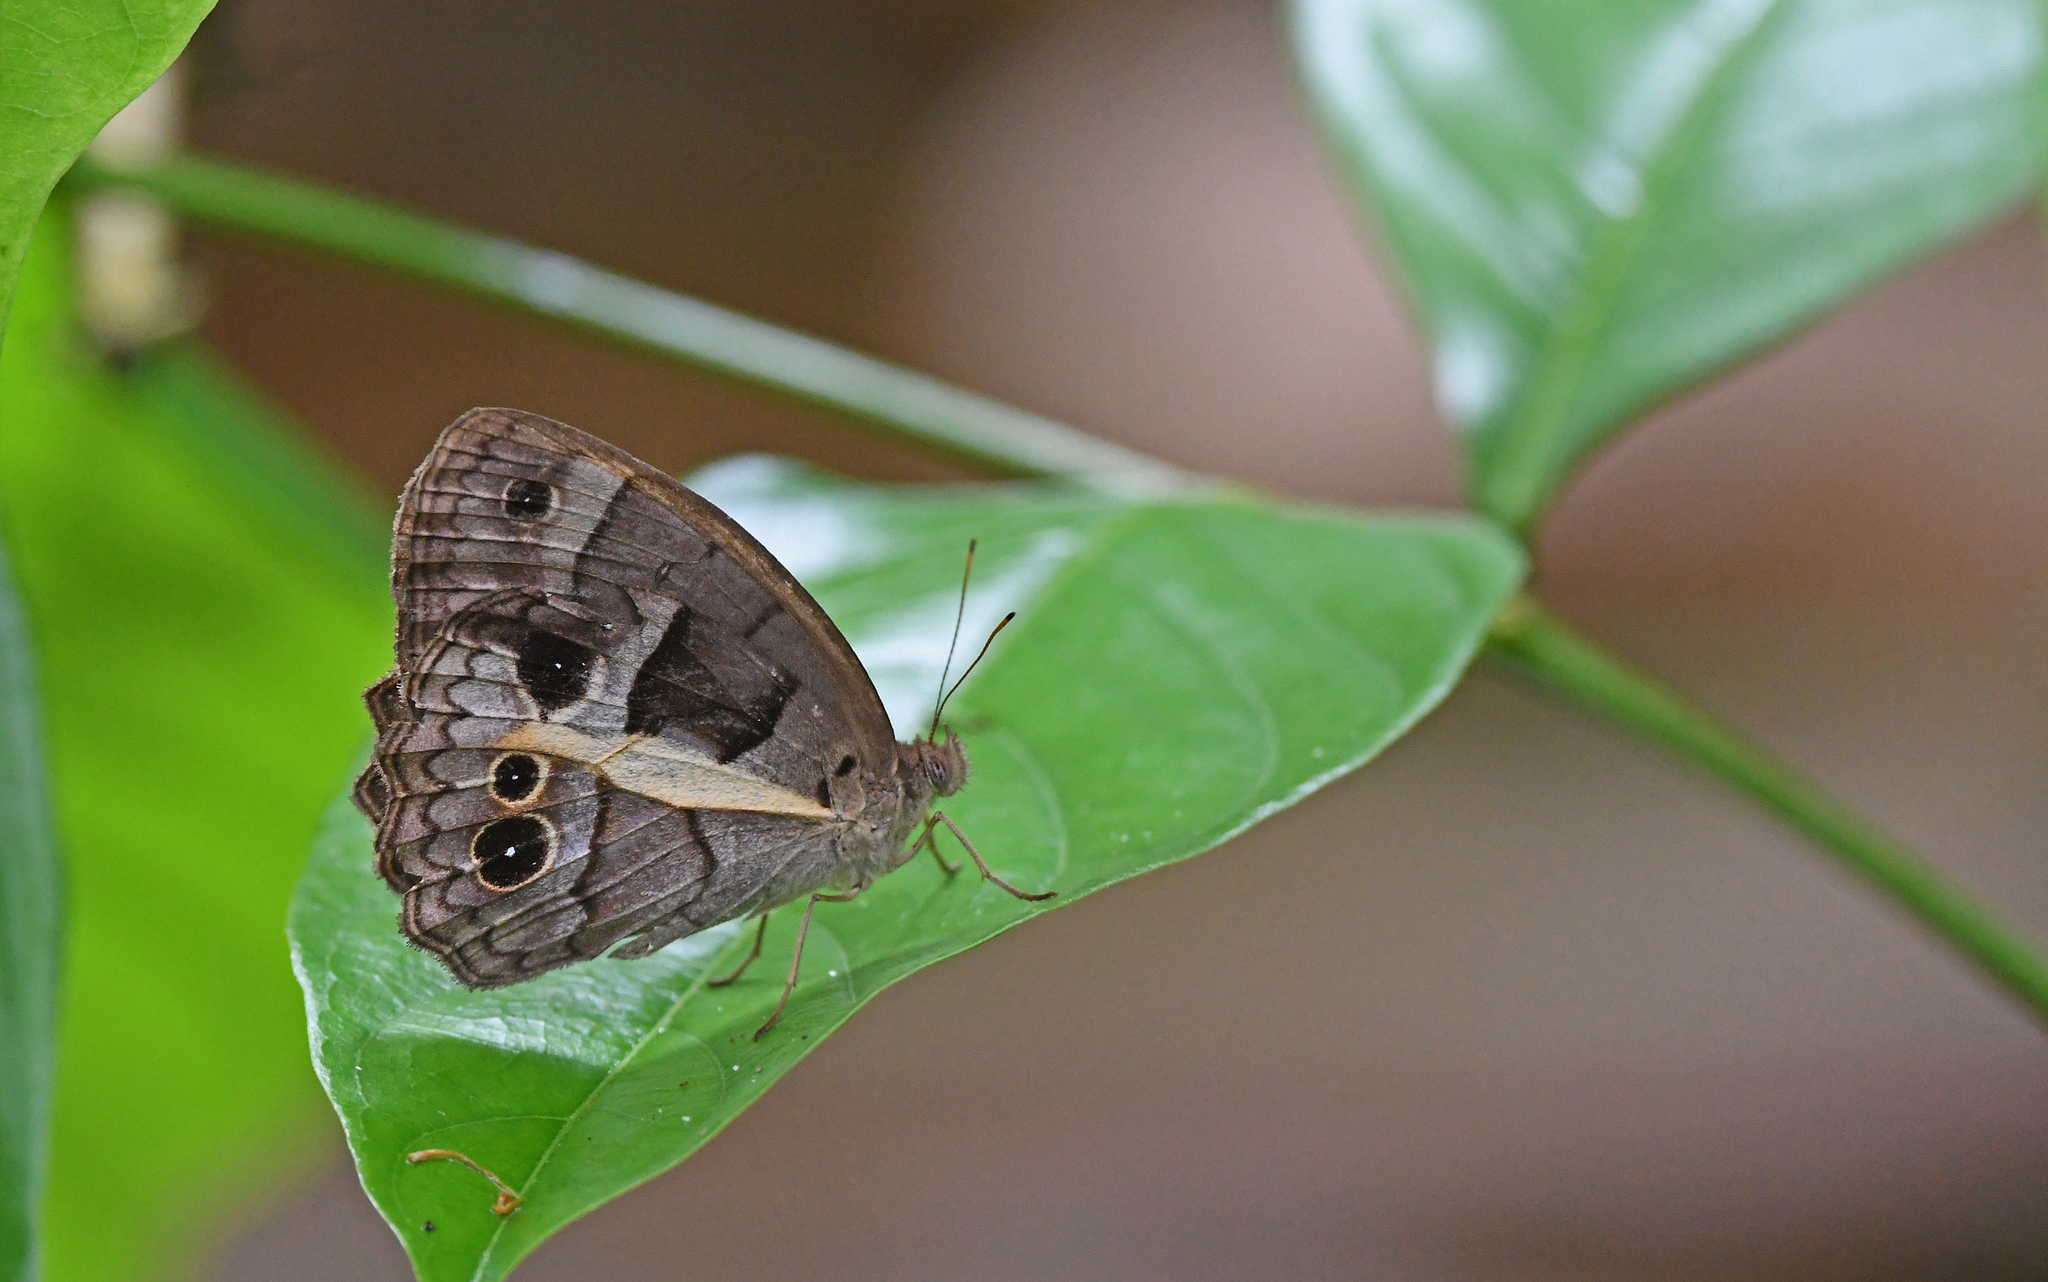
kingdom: Animalia
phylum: Arthropoda
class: Insecta
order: Lepidoptera
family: Nymphalidae
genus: Posttaygetis
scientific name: Posttaygetis penelea
